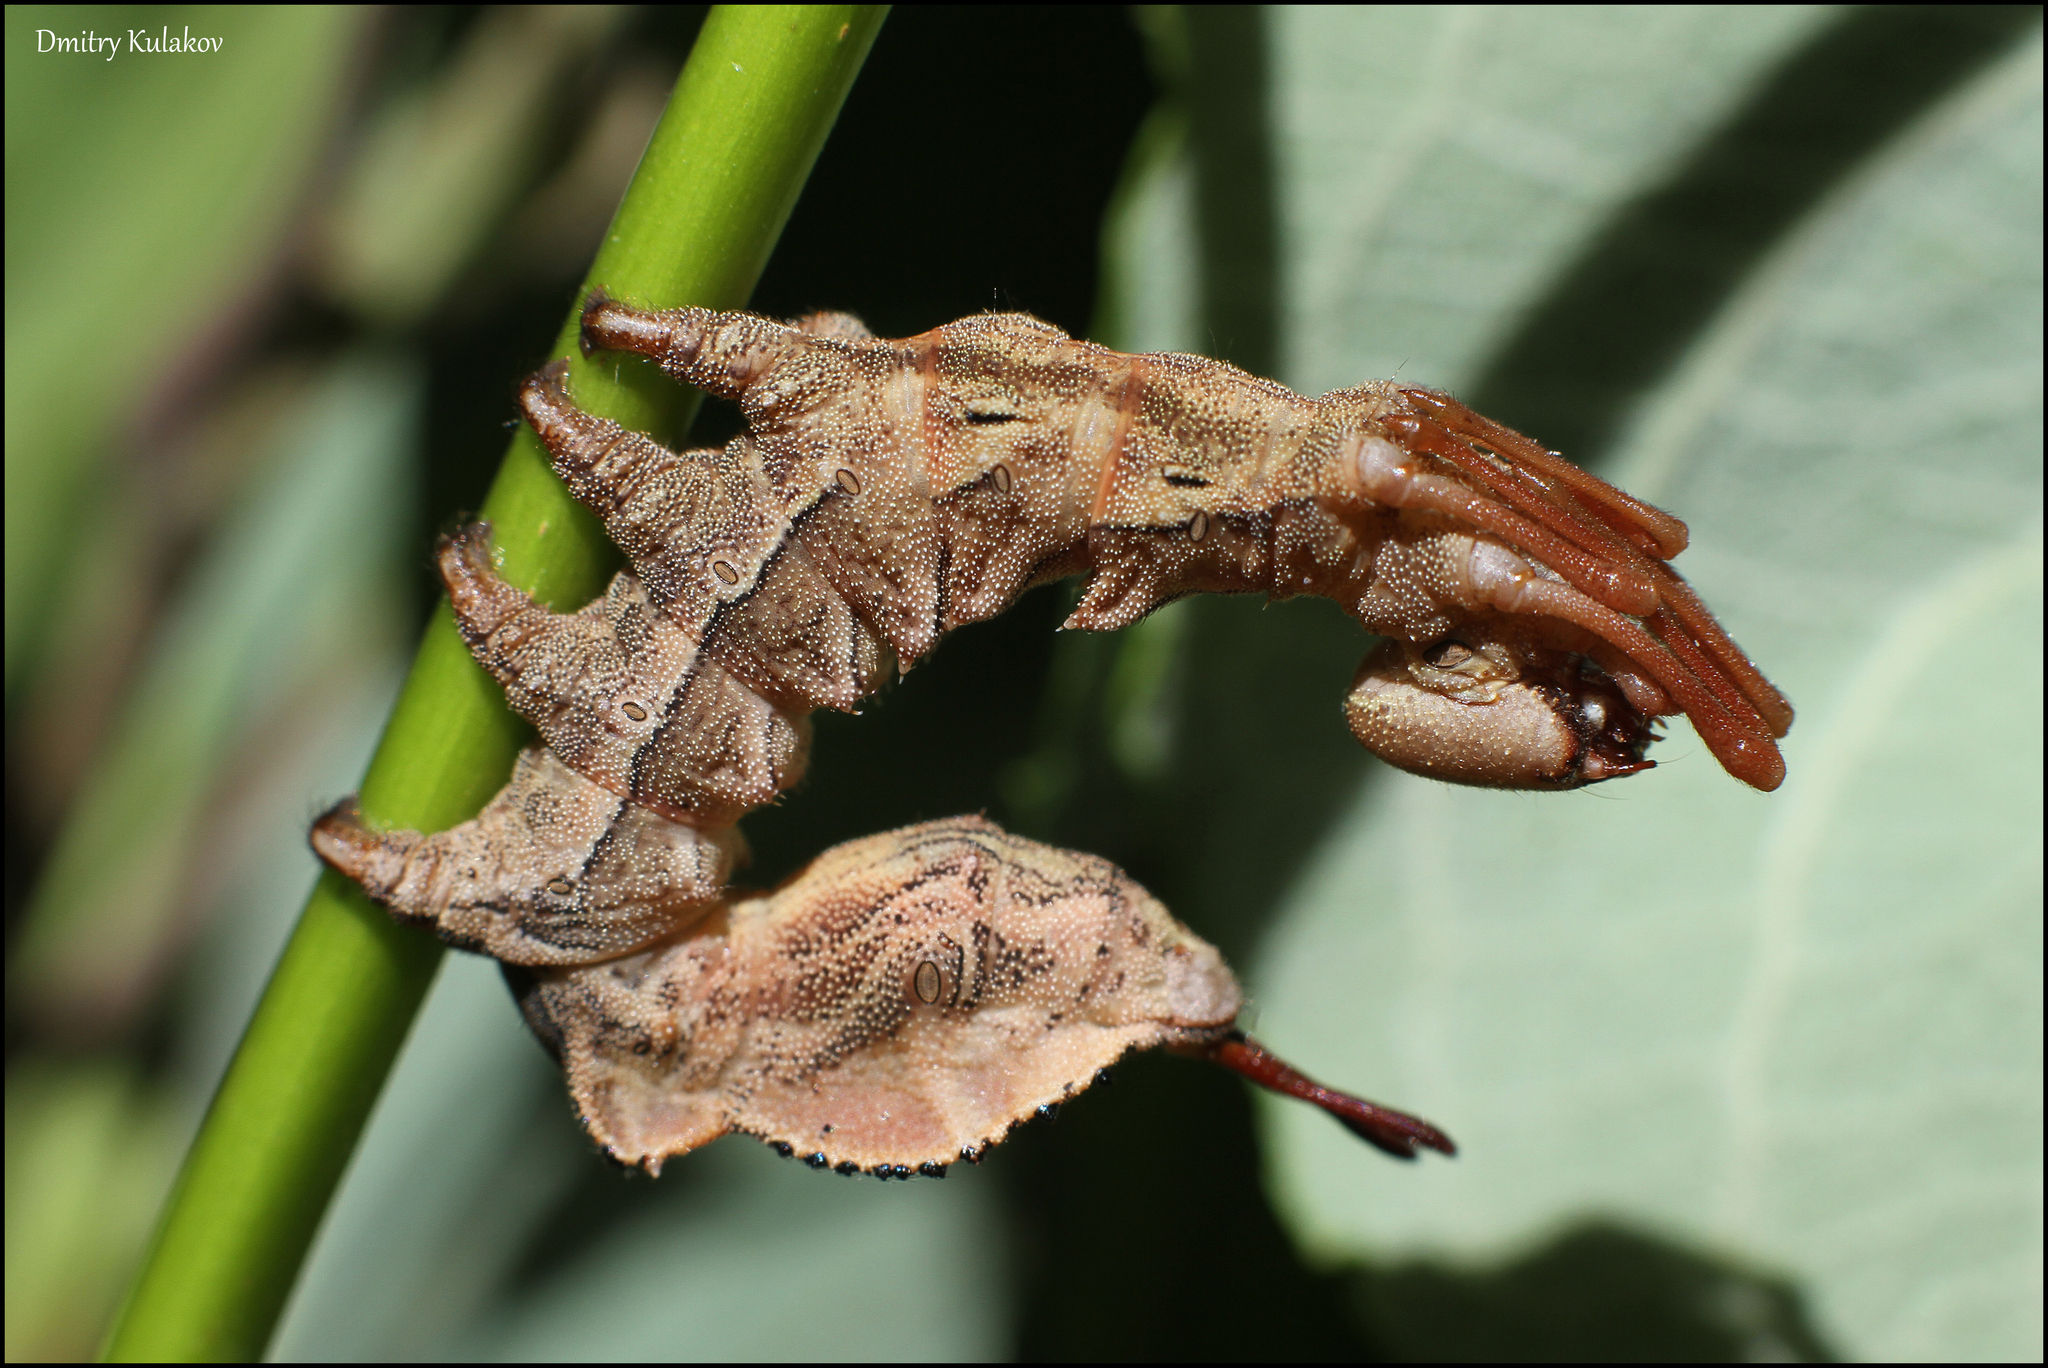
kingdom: Animalia
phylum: Arthropoda
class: Insecta
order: Lepidoptera
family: Notodontidae
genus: Stauropus
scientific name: Stauropus fagi
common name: Lobster moth
